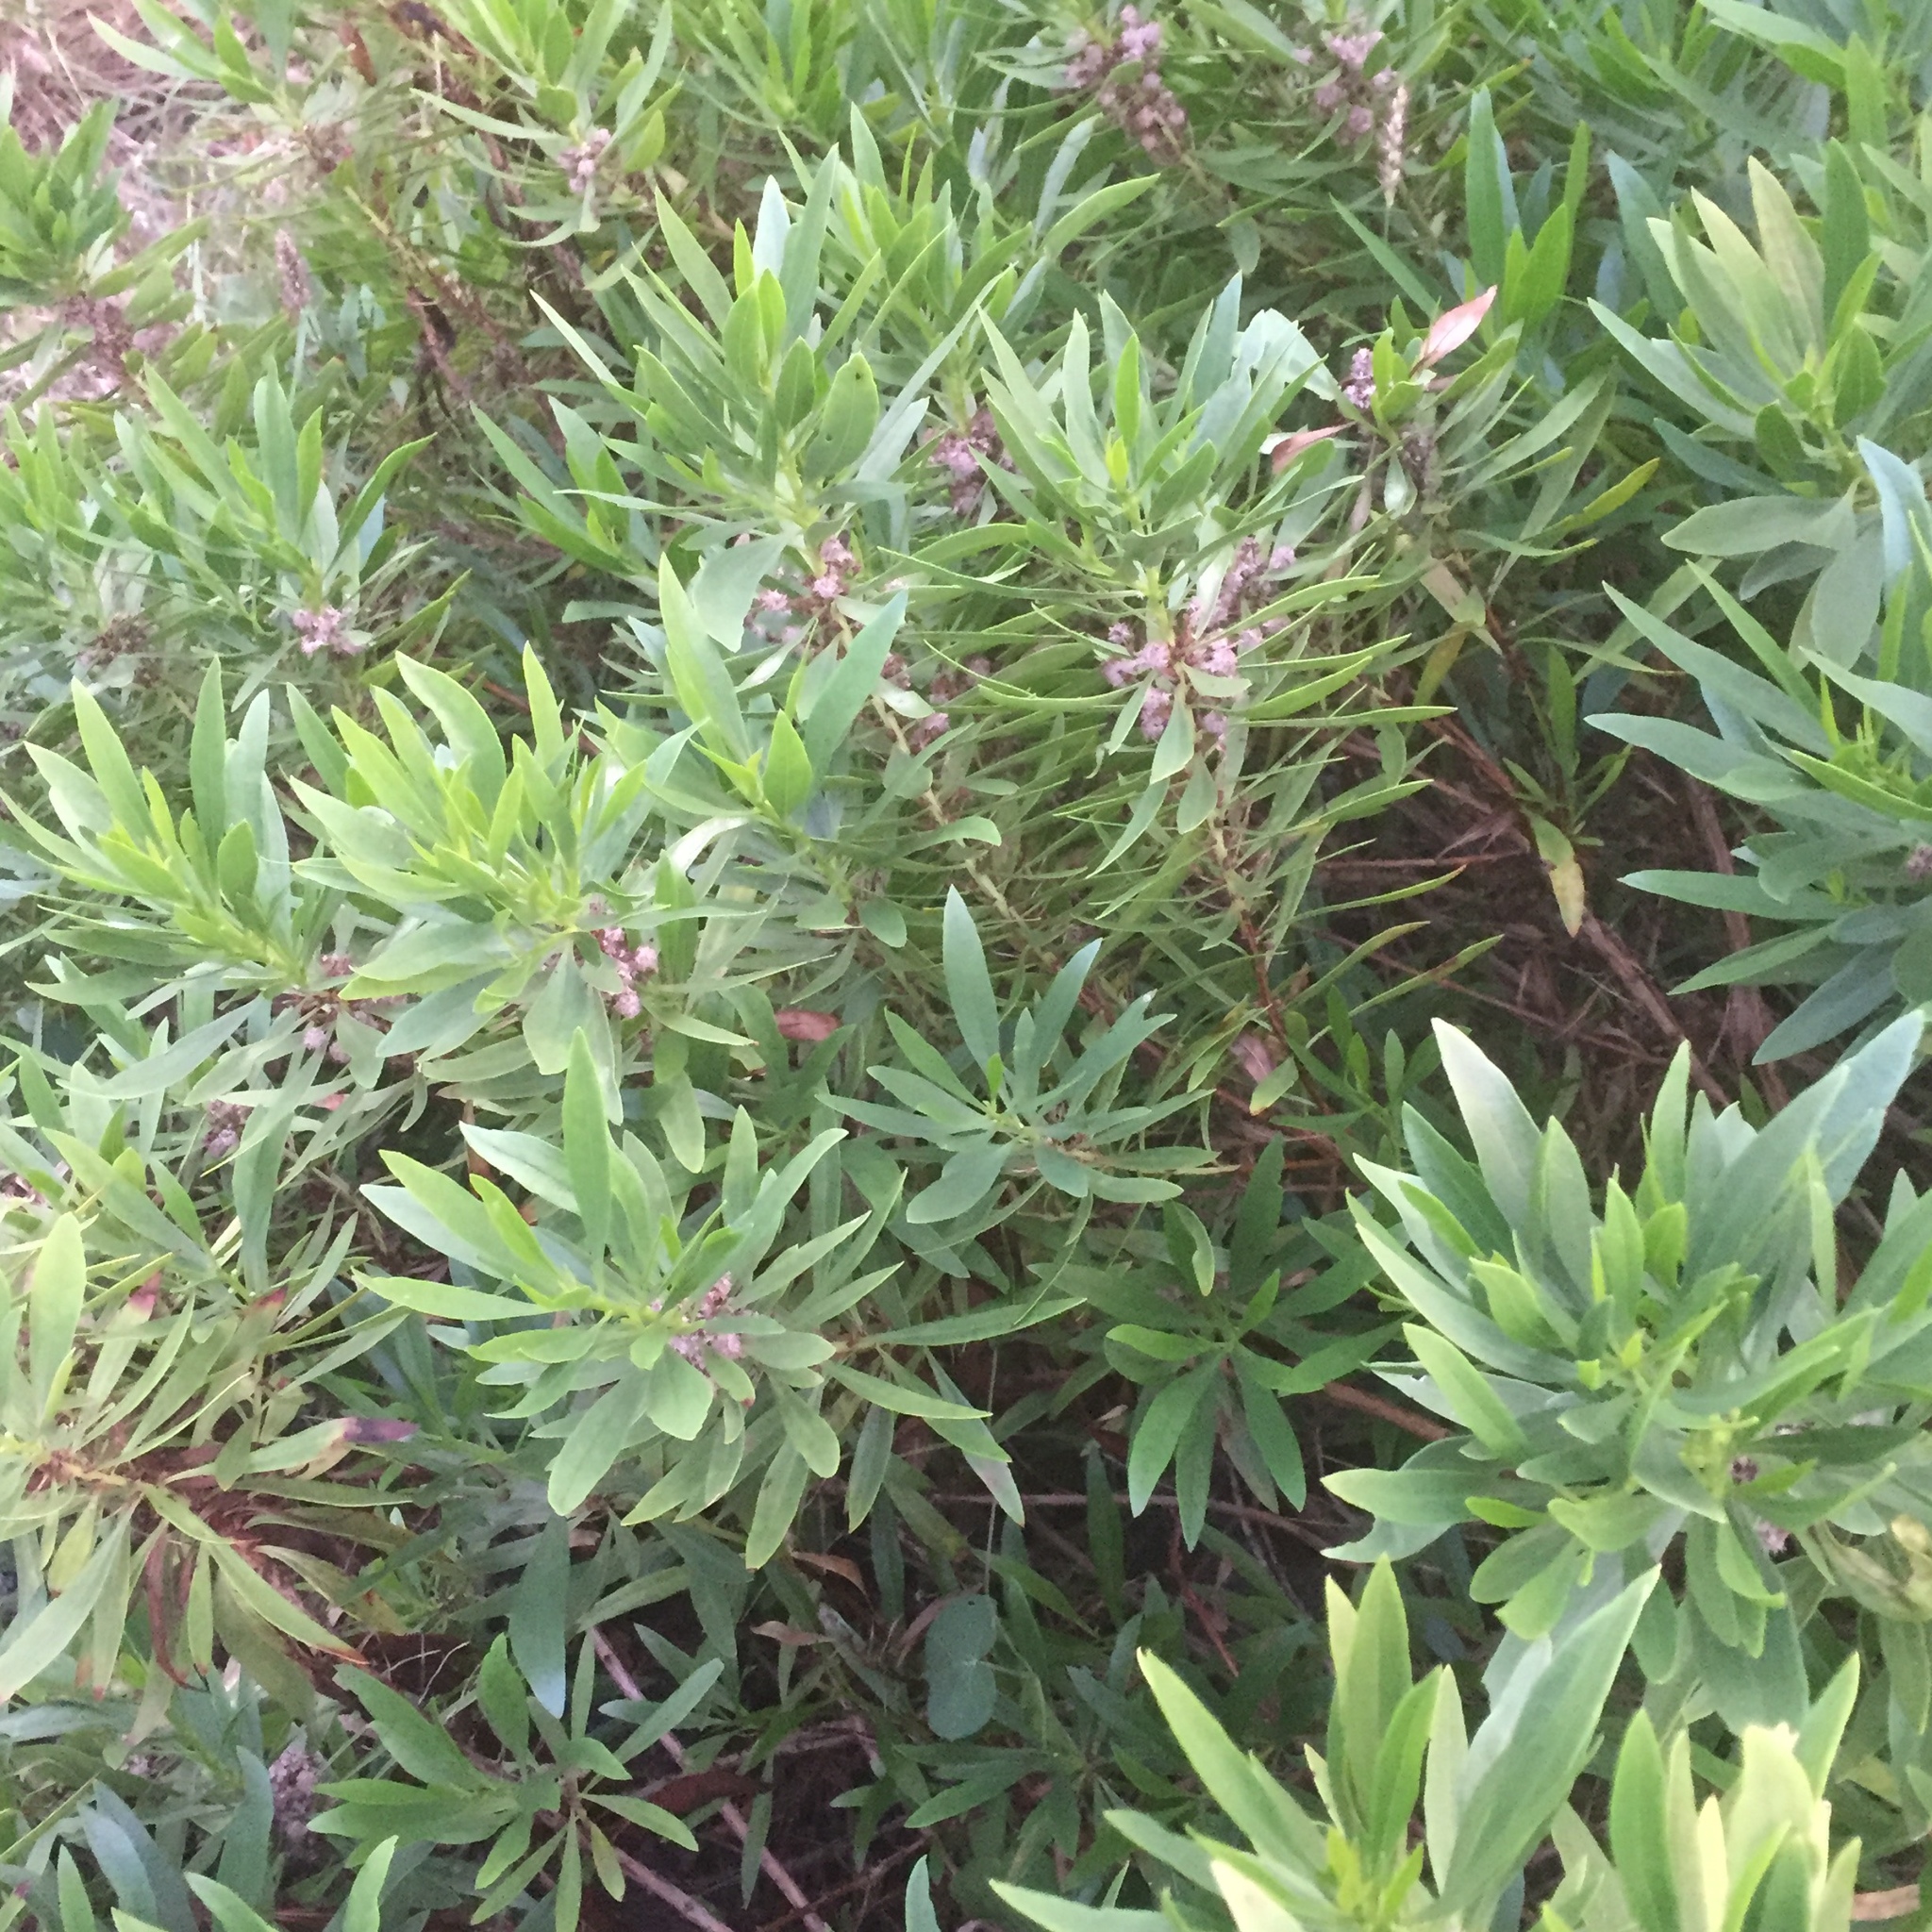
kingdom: Plantae
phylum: Tracheophyta
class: Magnoliopsida
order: Lamiales
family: Plantaginaceae
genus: Globularia
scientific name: Globularia salicina
